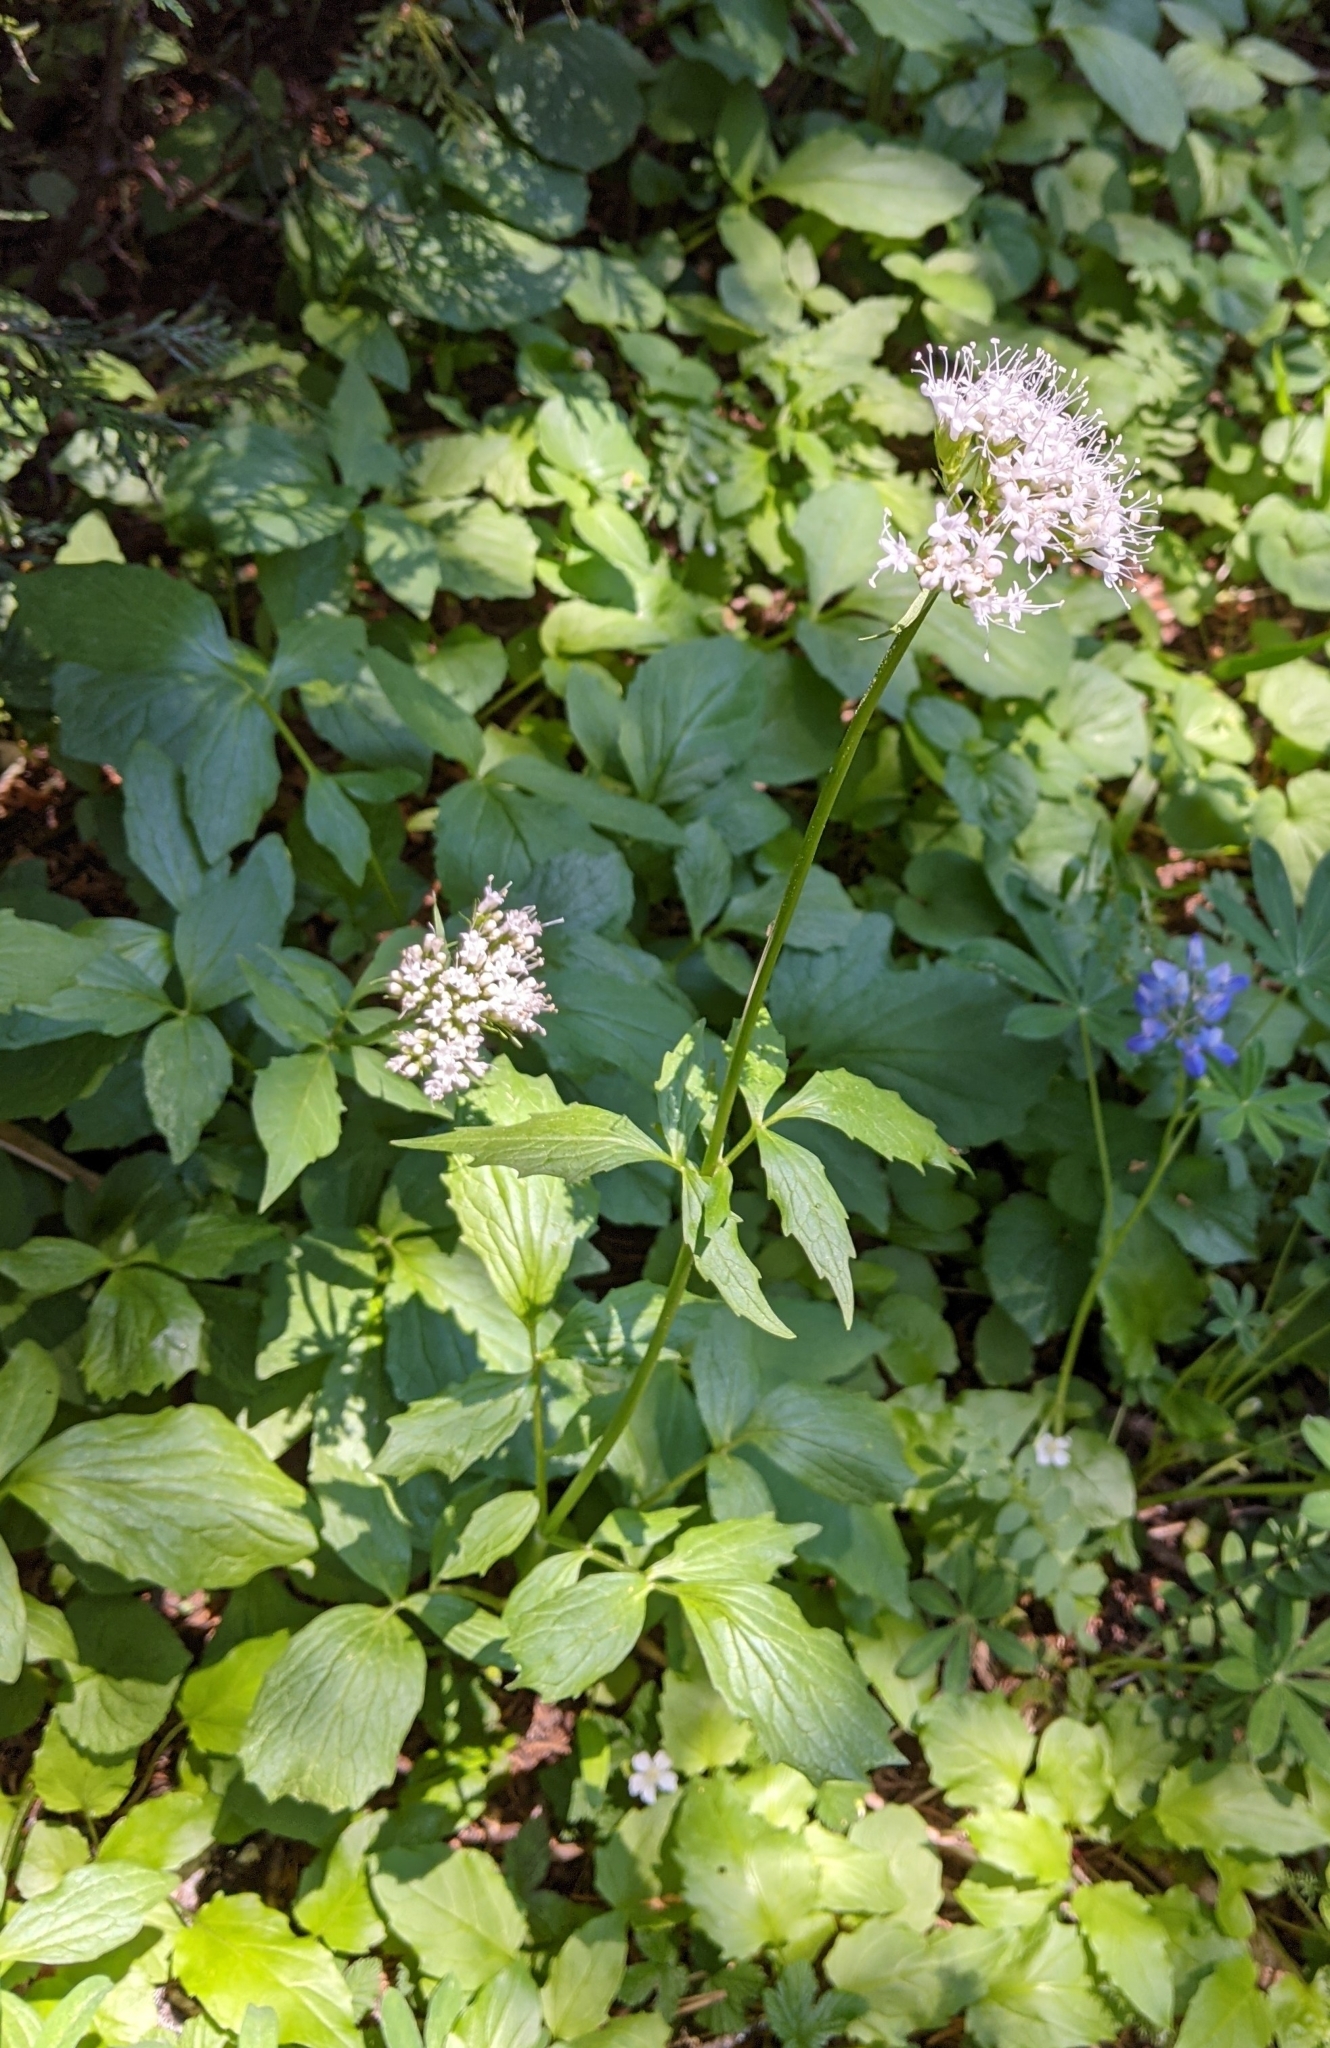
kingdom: Plantae
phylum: Tracheophyta
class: Magnoliopsida
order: Dipsacales
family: Caprifoliaceae
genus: Valeriana
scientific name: Valeriana sitchensis
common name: Pacific valerian
